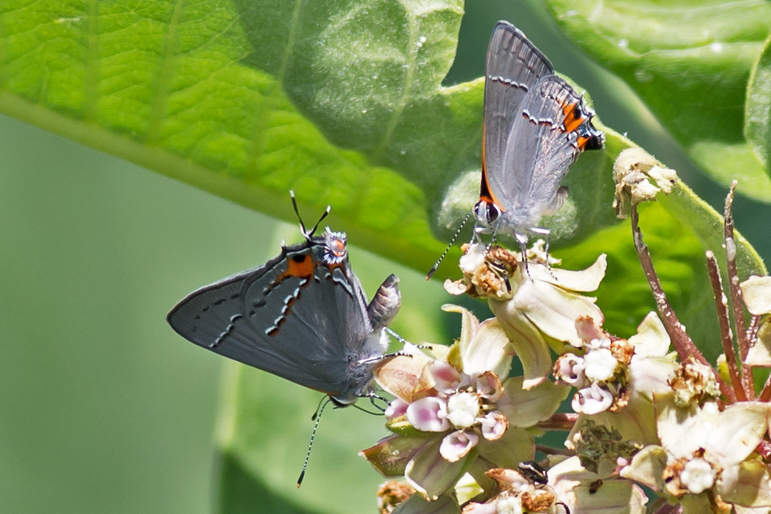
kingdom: Animalia
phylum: Arthropoda
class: Insecta
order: Lepidoptera
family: Lycaenidae
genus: Strymon
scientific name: Strymon melinus
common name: Gray hairstreak
